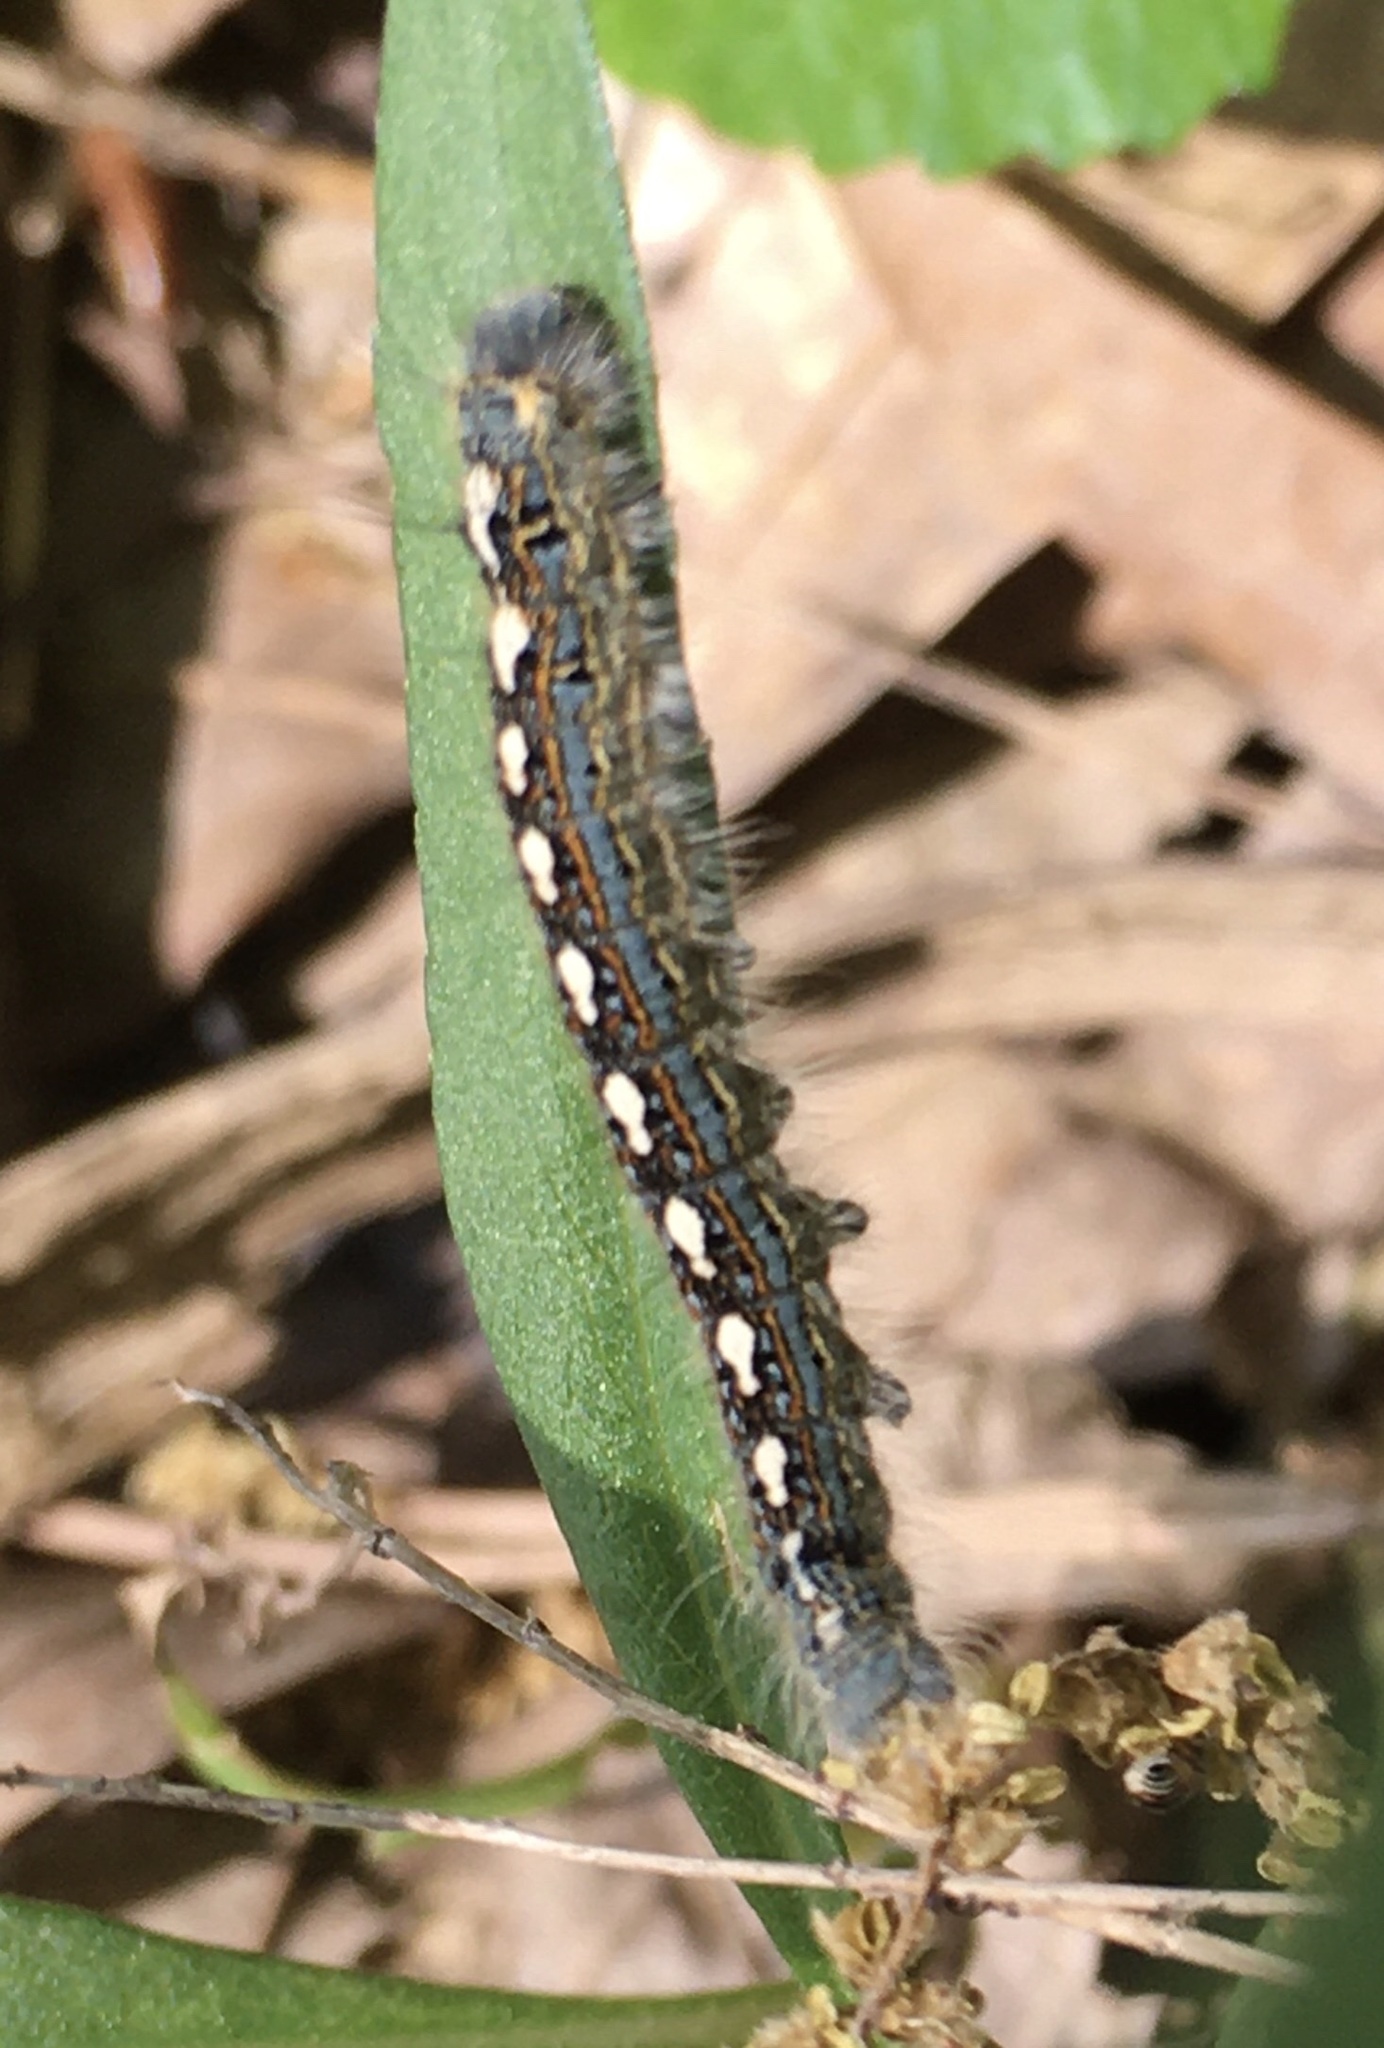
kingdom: Animalia
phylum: Arthropoda
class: Insecta
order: Lepidoptera
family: Lasiocampidae
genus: Malacosoma
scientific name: Malacosoma disstria
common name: Forest tent caterpillar
